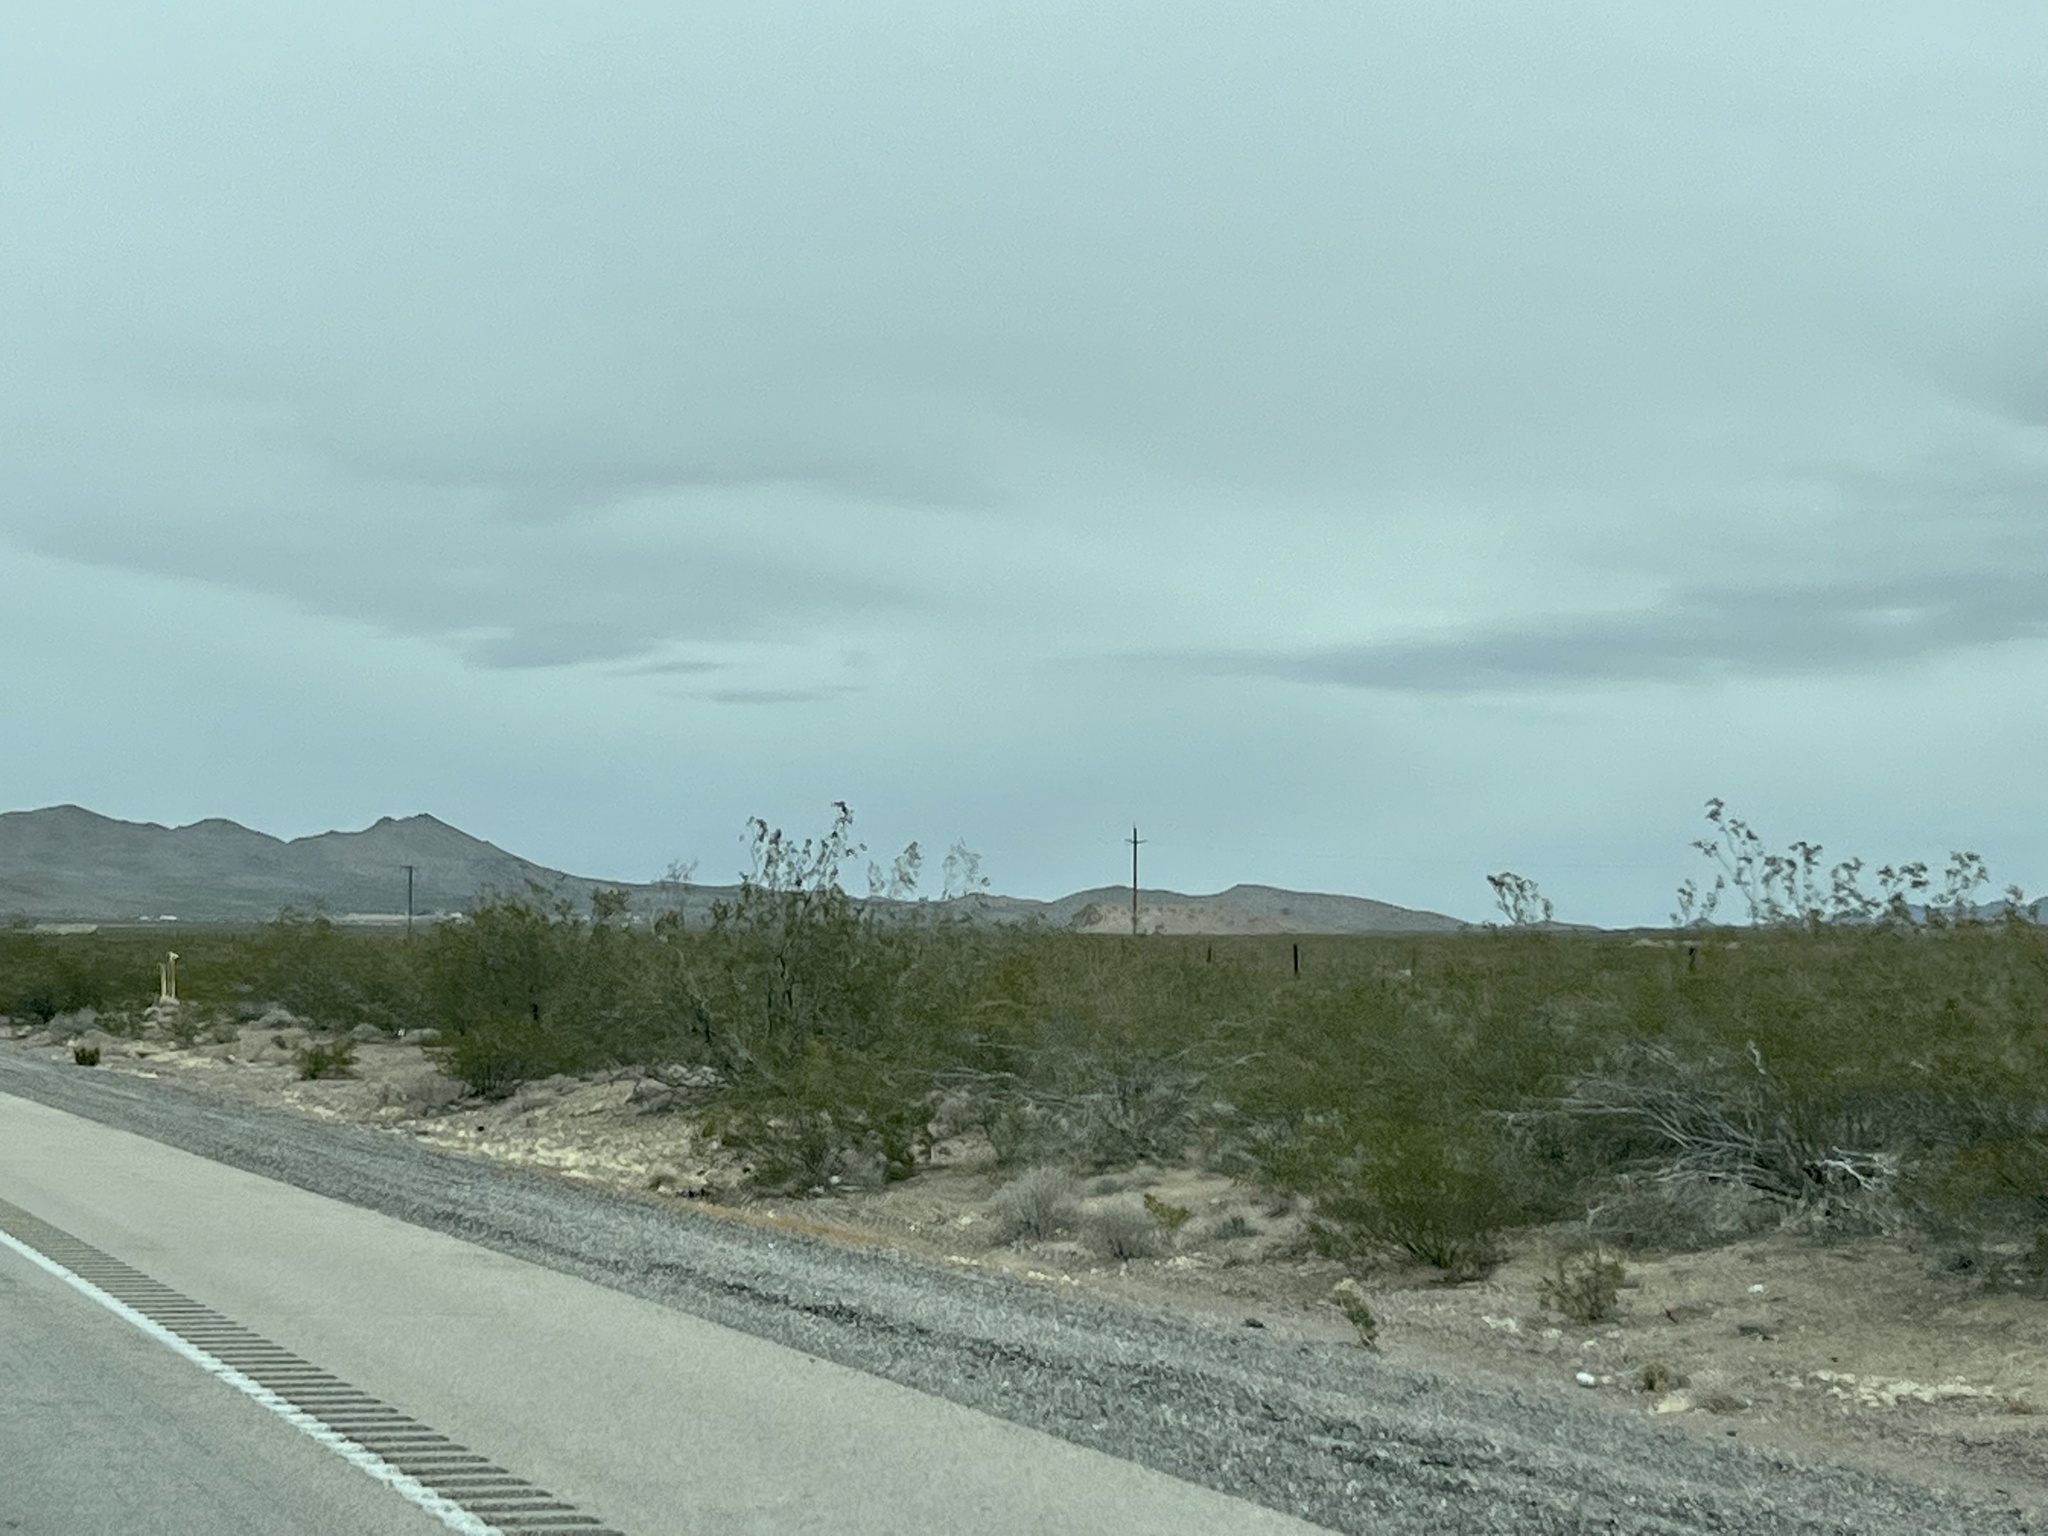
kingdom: Plantae
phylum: Tracheophyta
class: Magnoliopsida
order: Zygophyllales
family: Zygophyllaceae
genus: Larrea
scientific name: Larrea tridentata
